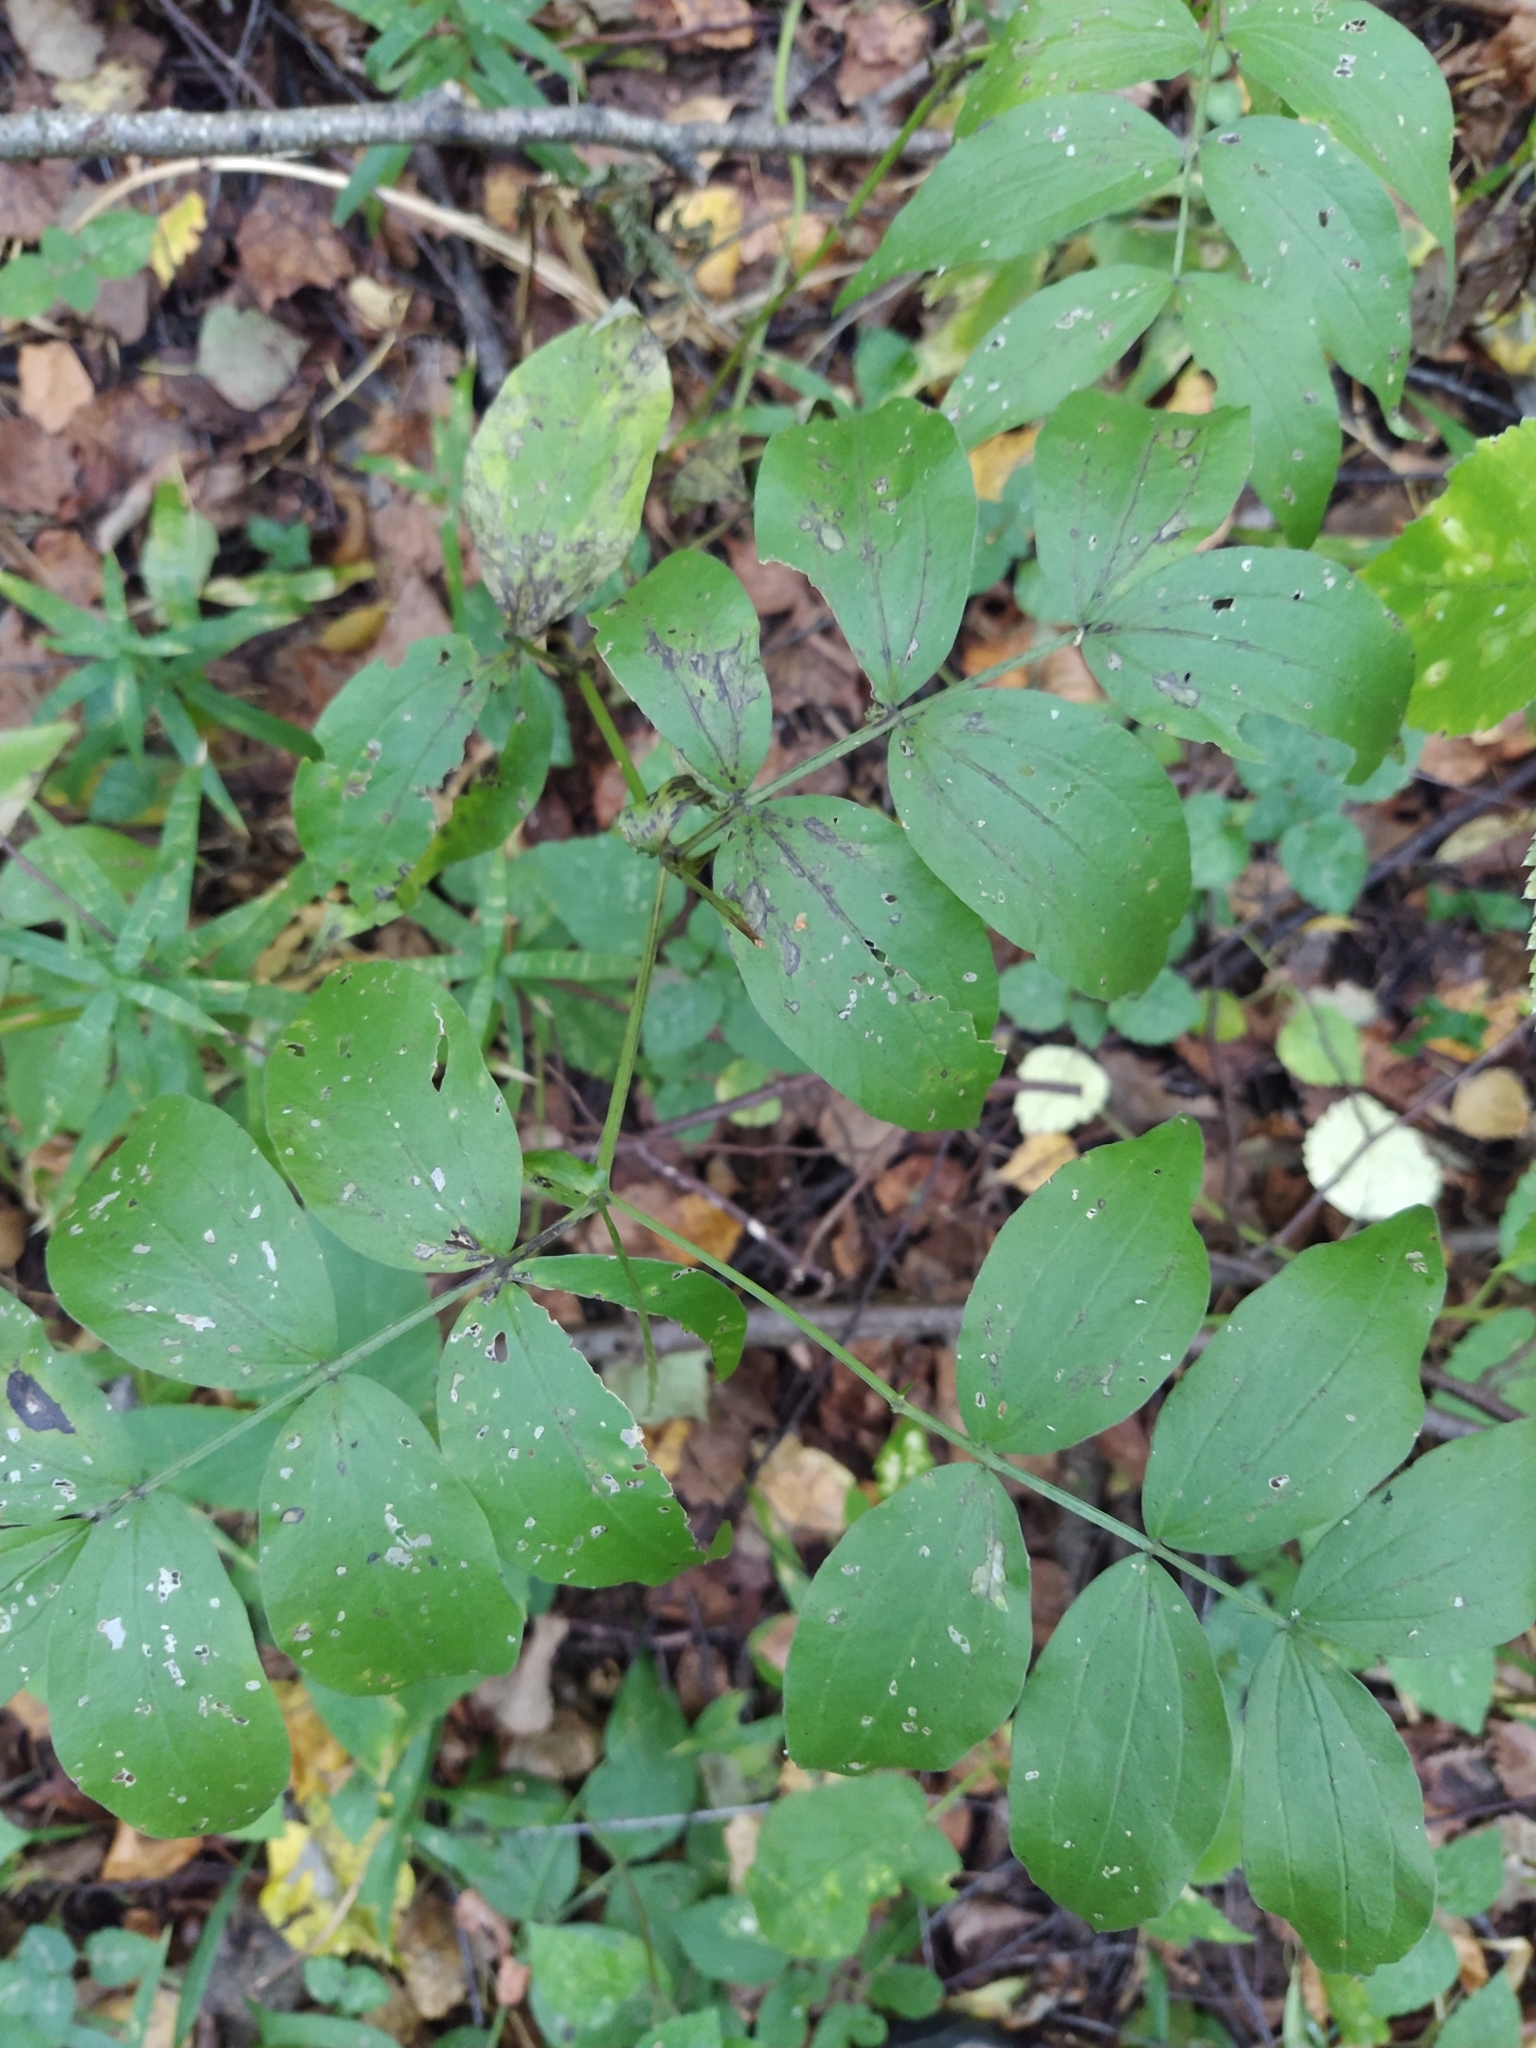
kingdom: Plantae
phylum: Tracheophyta
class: Magnoliopsida
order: Fabales
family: Fabaceae
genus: Lathyrus
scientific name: Lathyrus vernus
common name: Spring pea
